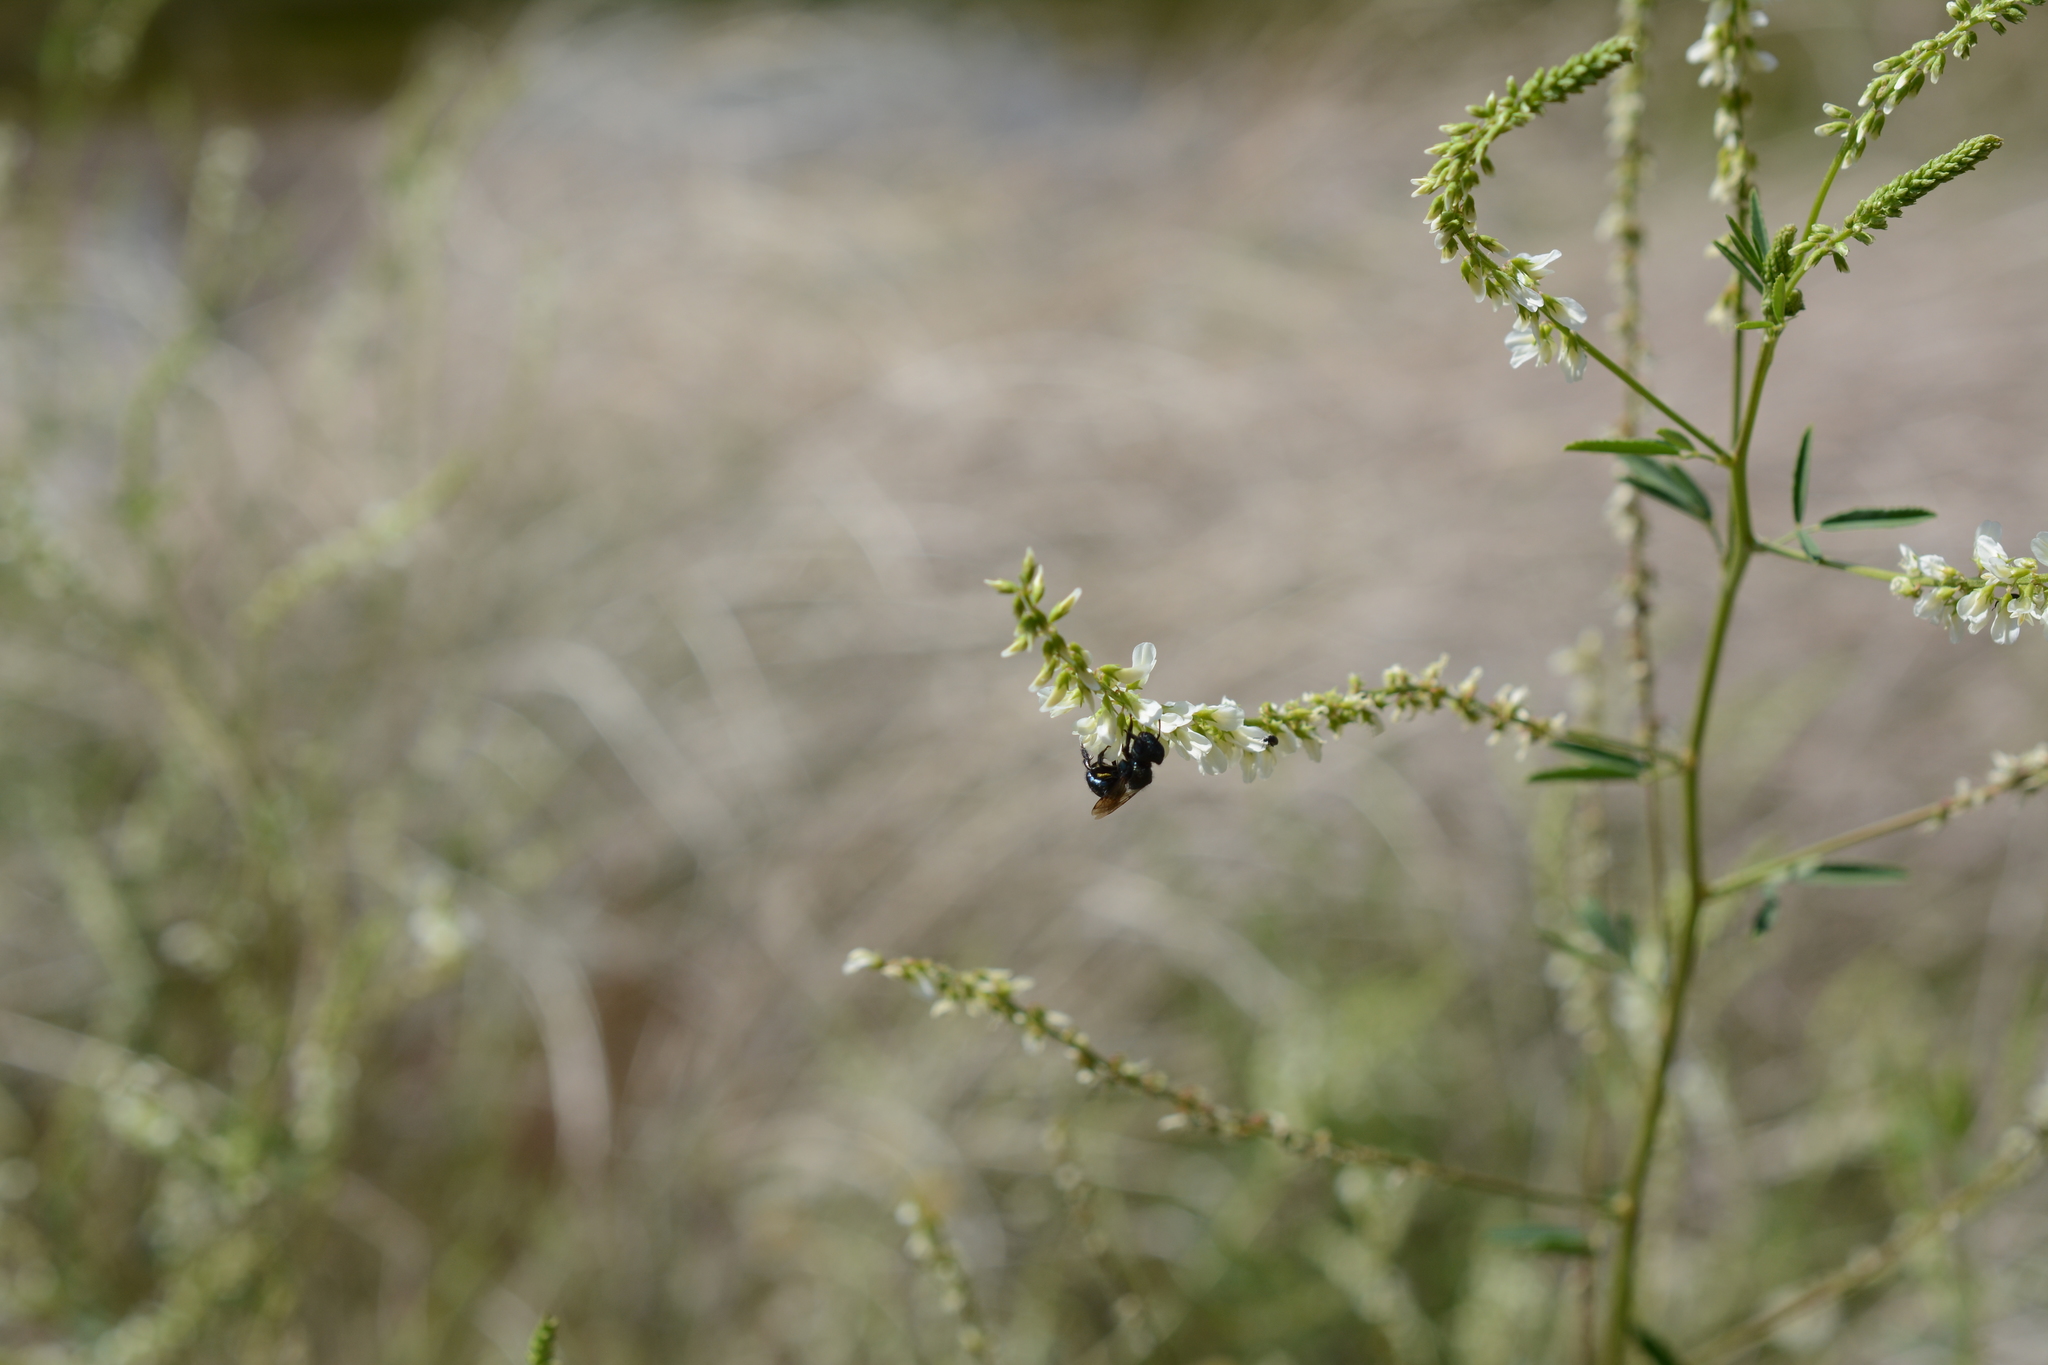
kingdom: Plantae
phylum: Tracheophyta
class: Magnoliopsida
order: Fabales
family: Fabaceae
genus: Melilotus
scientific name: Melilotus albus
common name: White melilot
